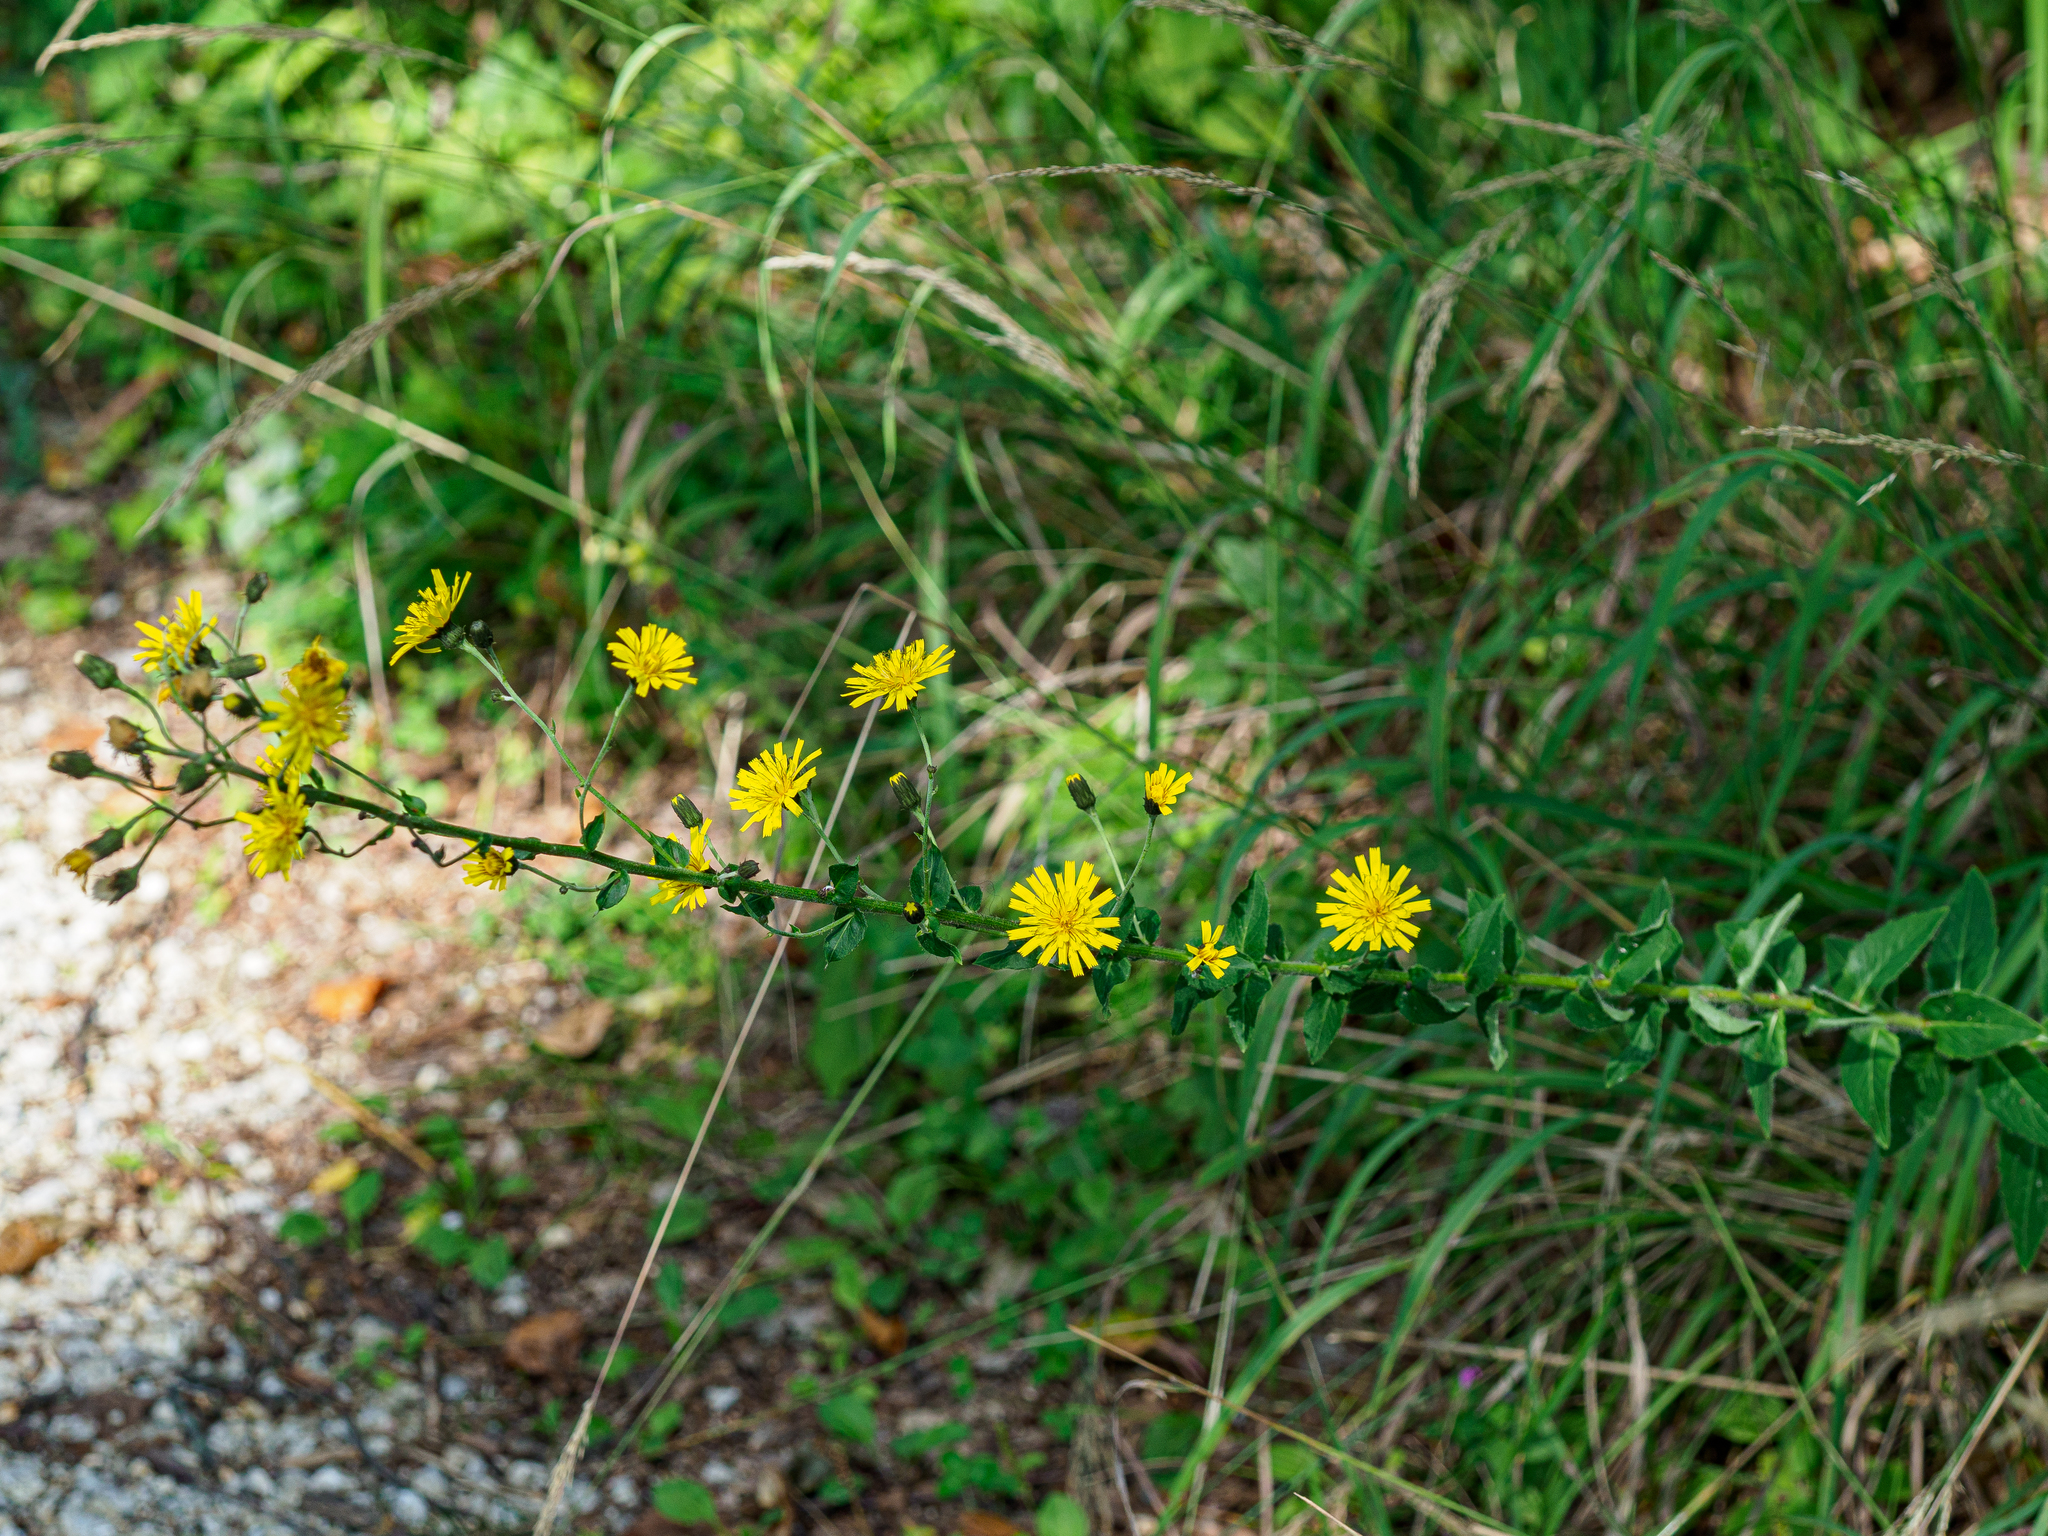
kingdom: Plantae
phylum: Tracheophyta
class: Magnoliopsida
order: Asterales
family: Asteraceae
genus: Hieracium
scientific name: Hieracium laevigatum
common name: Smooth hawkweed
